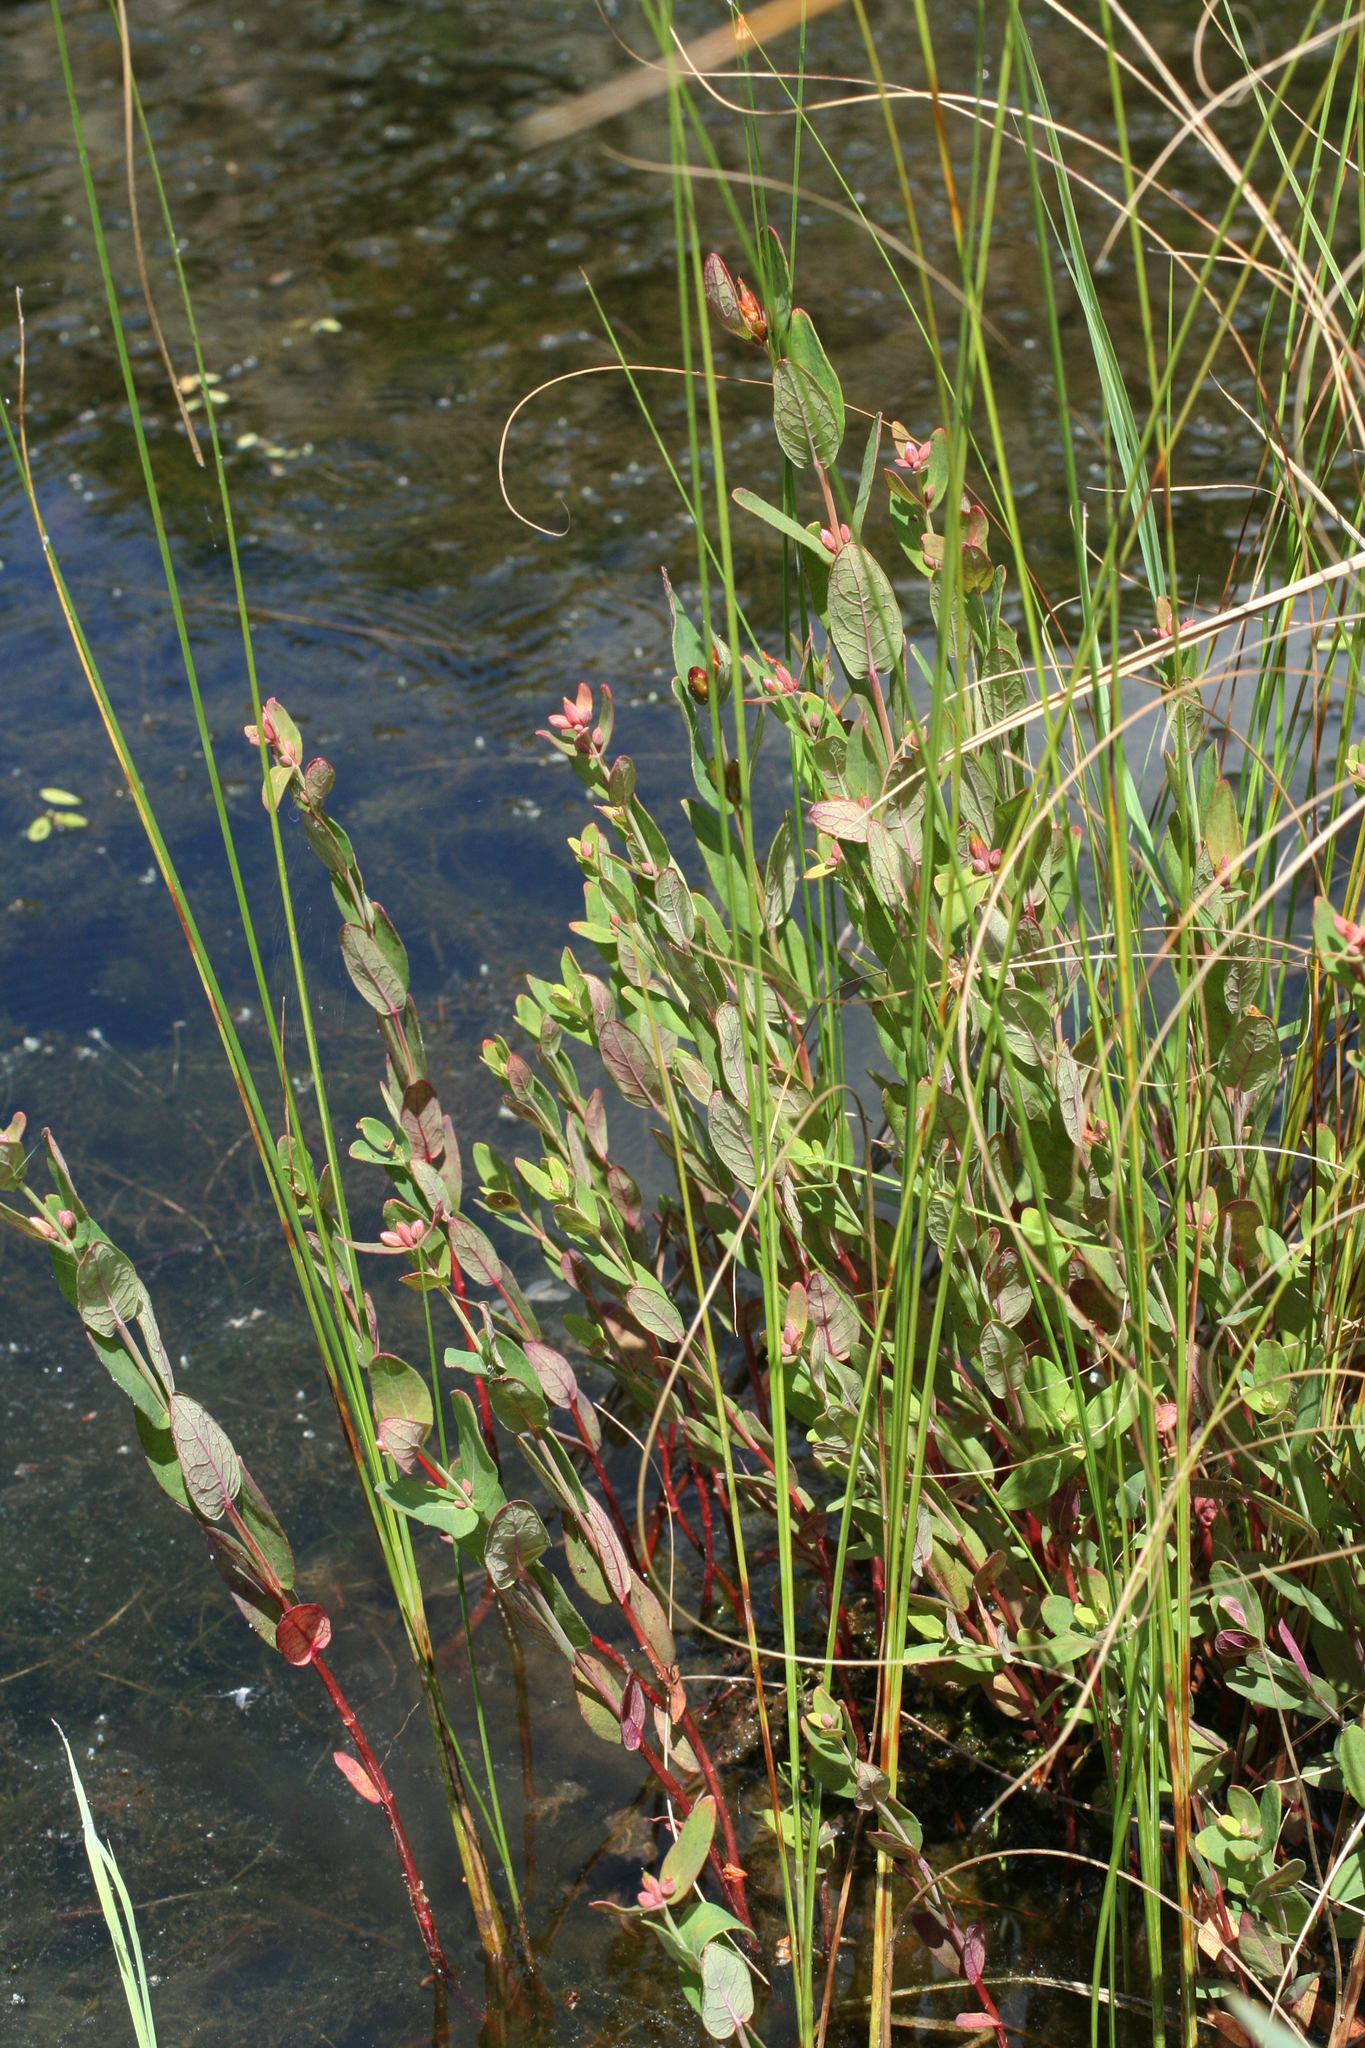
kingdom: Plantae
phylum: Tracheophyta
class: Magnoliopsida
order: Malpighiales
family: Hypericaceae
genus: Triadenum
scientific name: Triadenum japonicum
